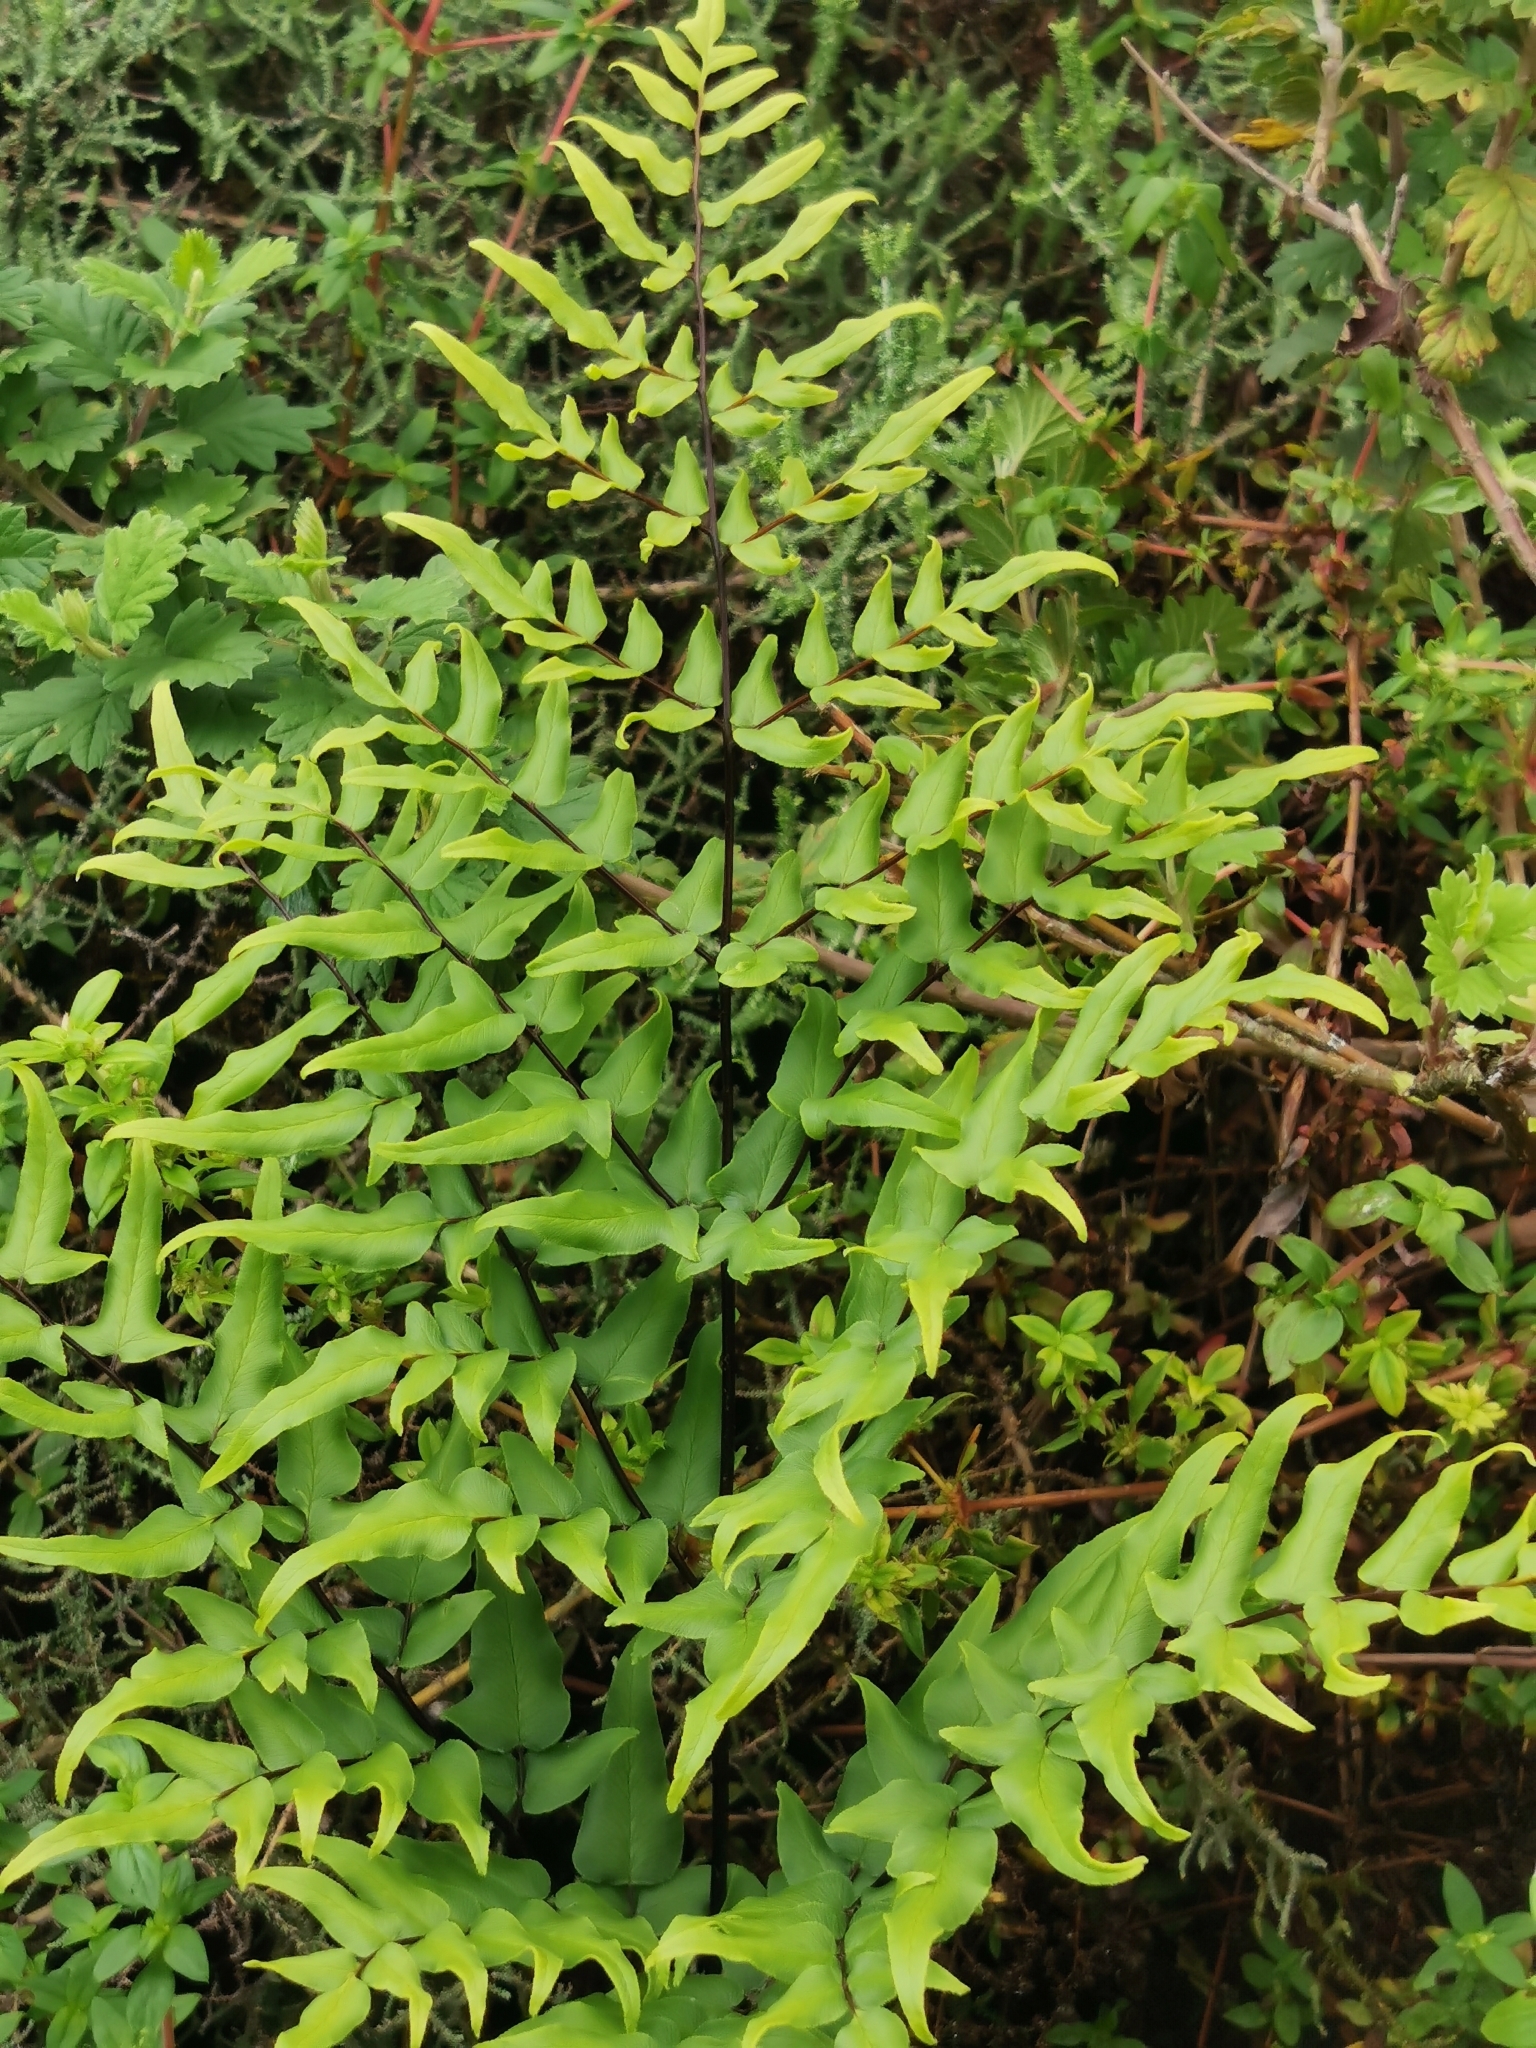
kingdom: Plantae
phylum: Tracheophyta
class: Polypodiopsida
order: Polypodiales
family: Pteridaceae
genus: Cheilanthes
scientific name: Cheilanthes viridis
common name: Green cliffbrake
